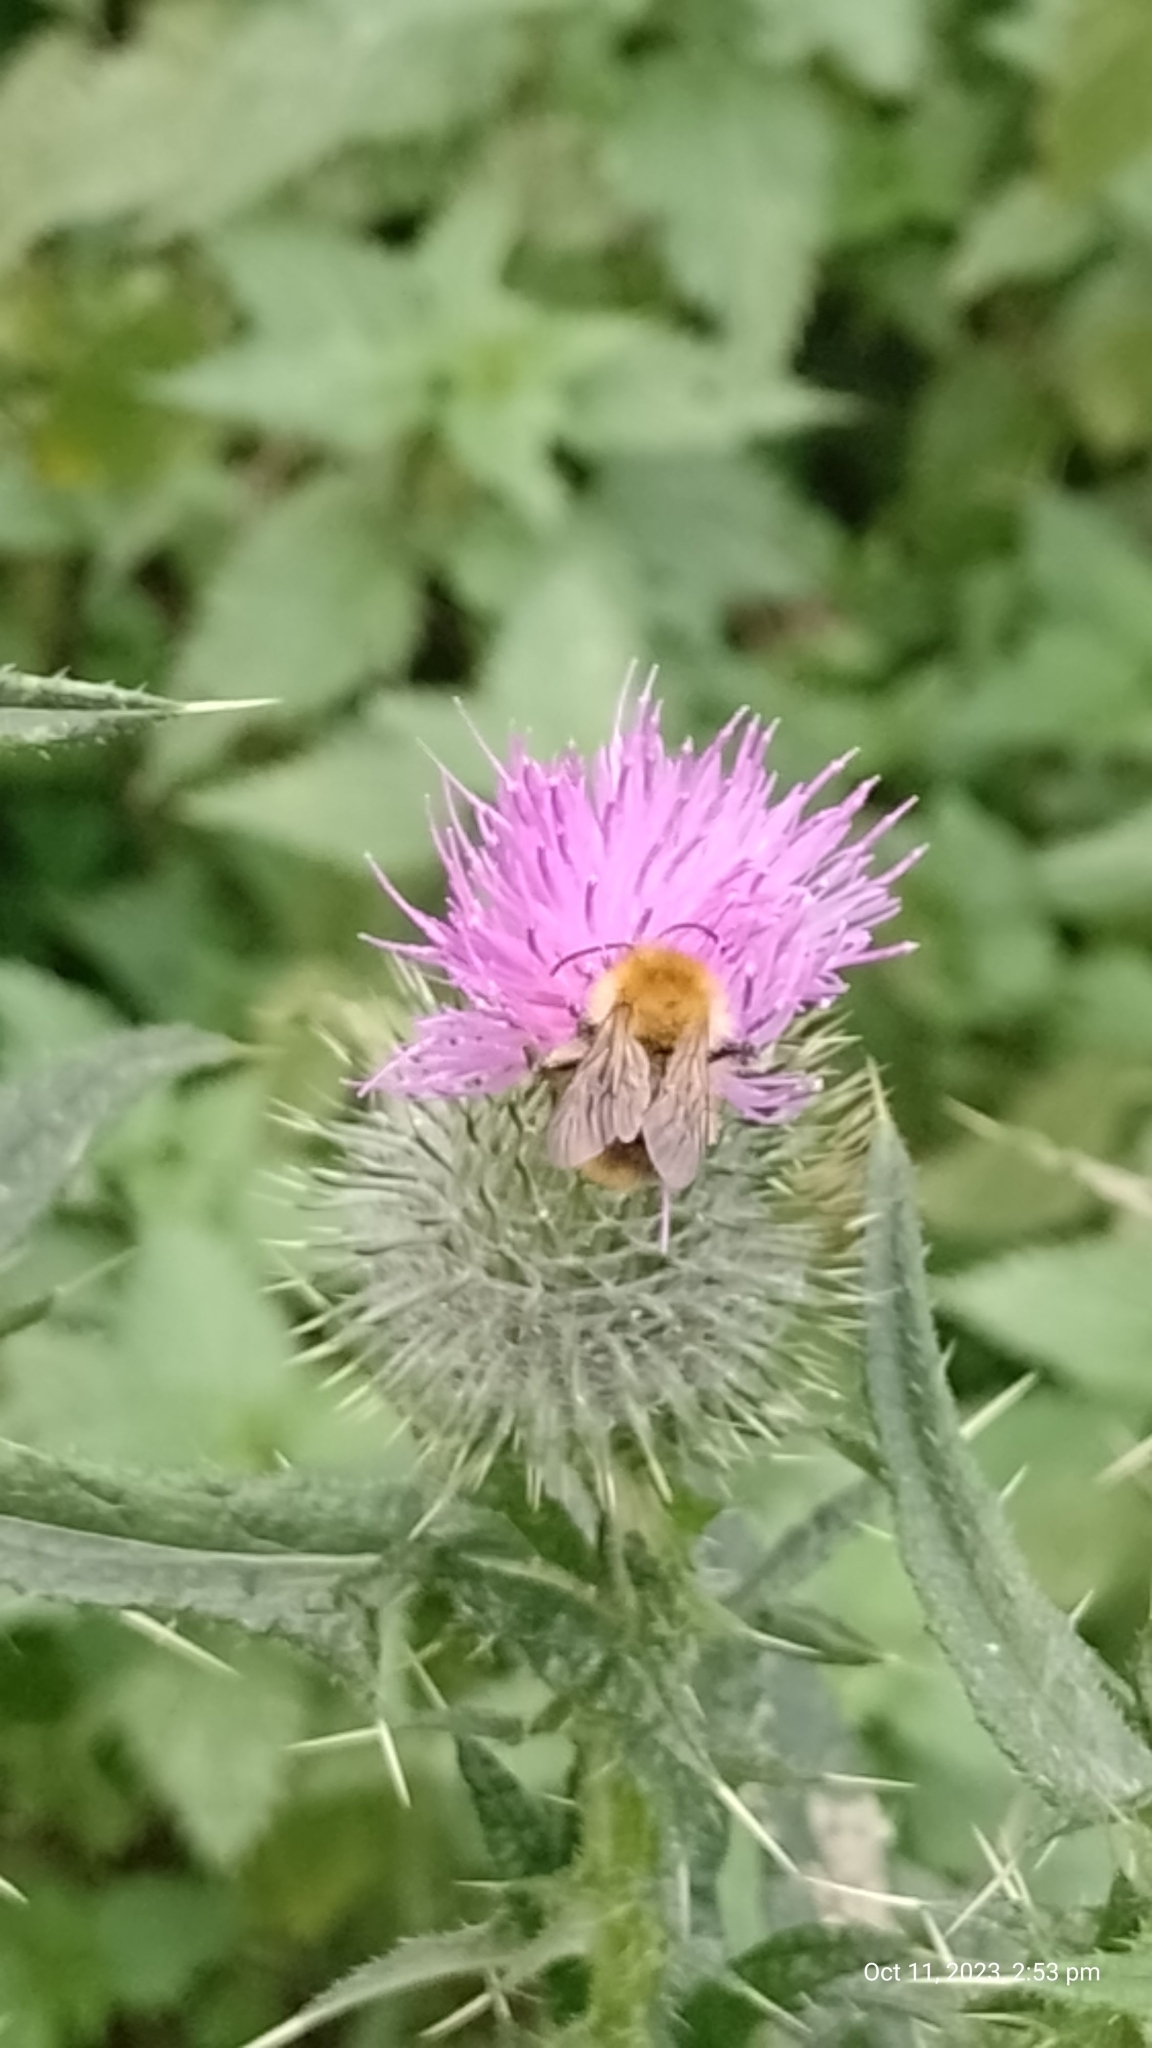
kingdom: Animalia
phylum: Arthropoda
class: Insecta
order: Hymenoptera
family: Apidae
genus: Bombus
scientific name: Bombus pascuorum
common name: Common carder bee
